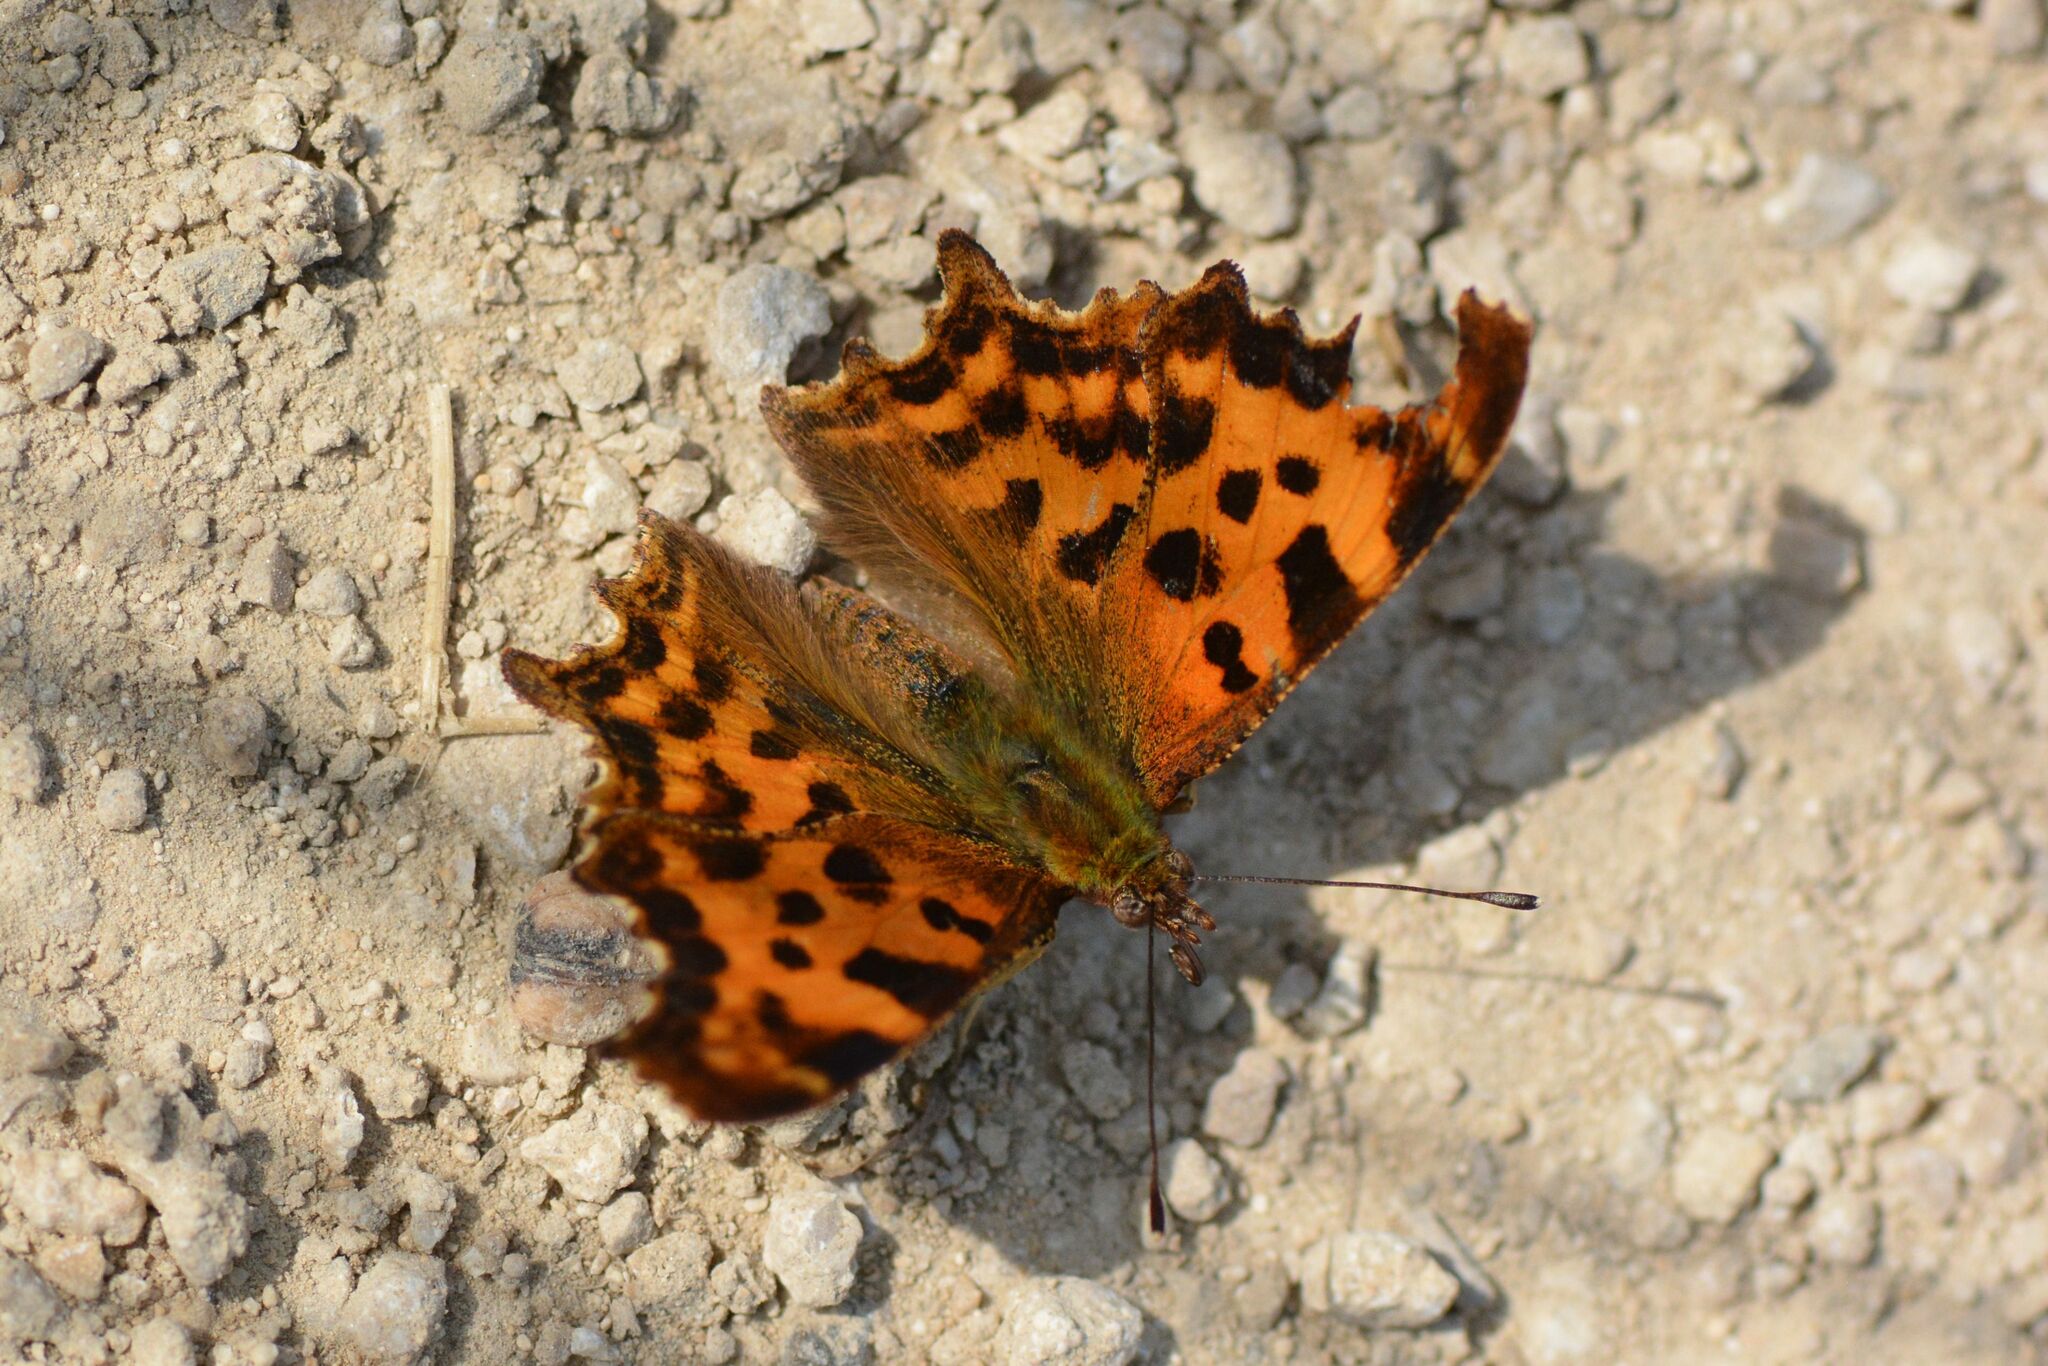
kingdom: Animalia
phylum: Arthropoda
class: Insecta
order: Lepidoptera
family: Nymphalidae
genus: Polygonia
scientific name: Polygonia c-album
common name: Comma
